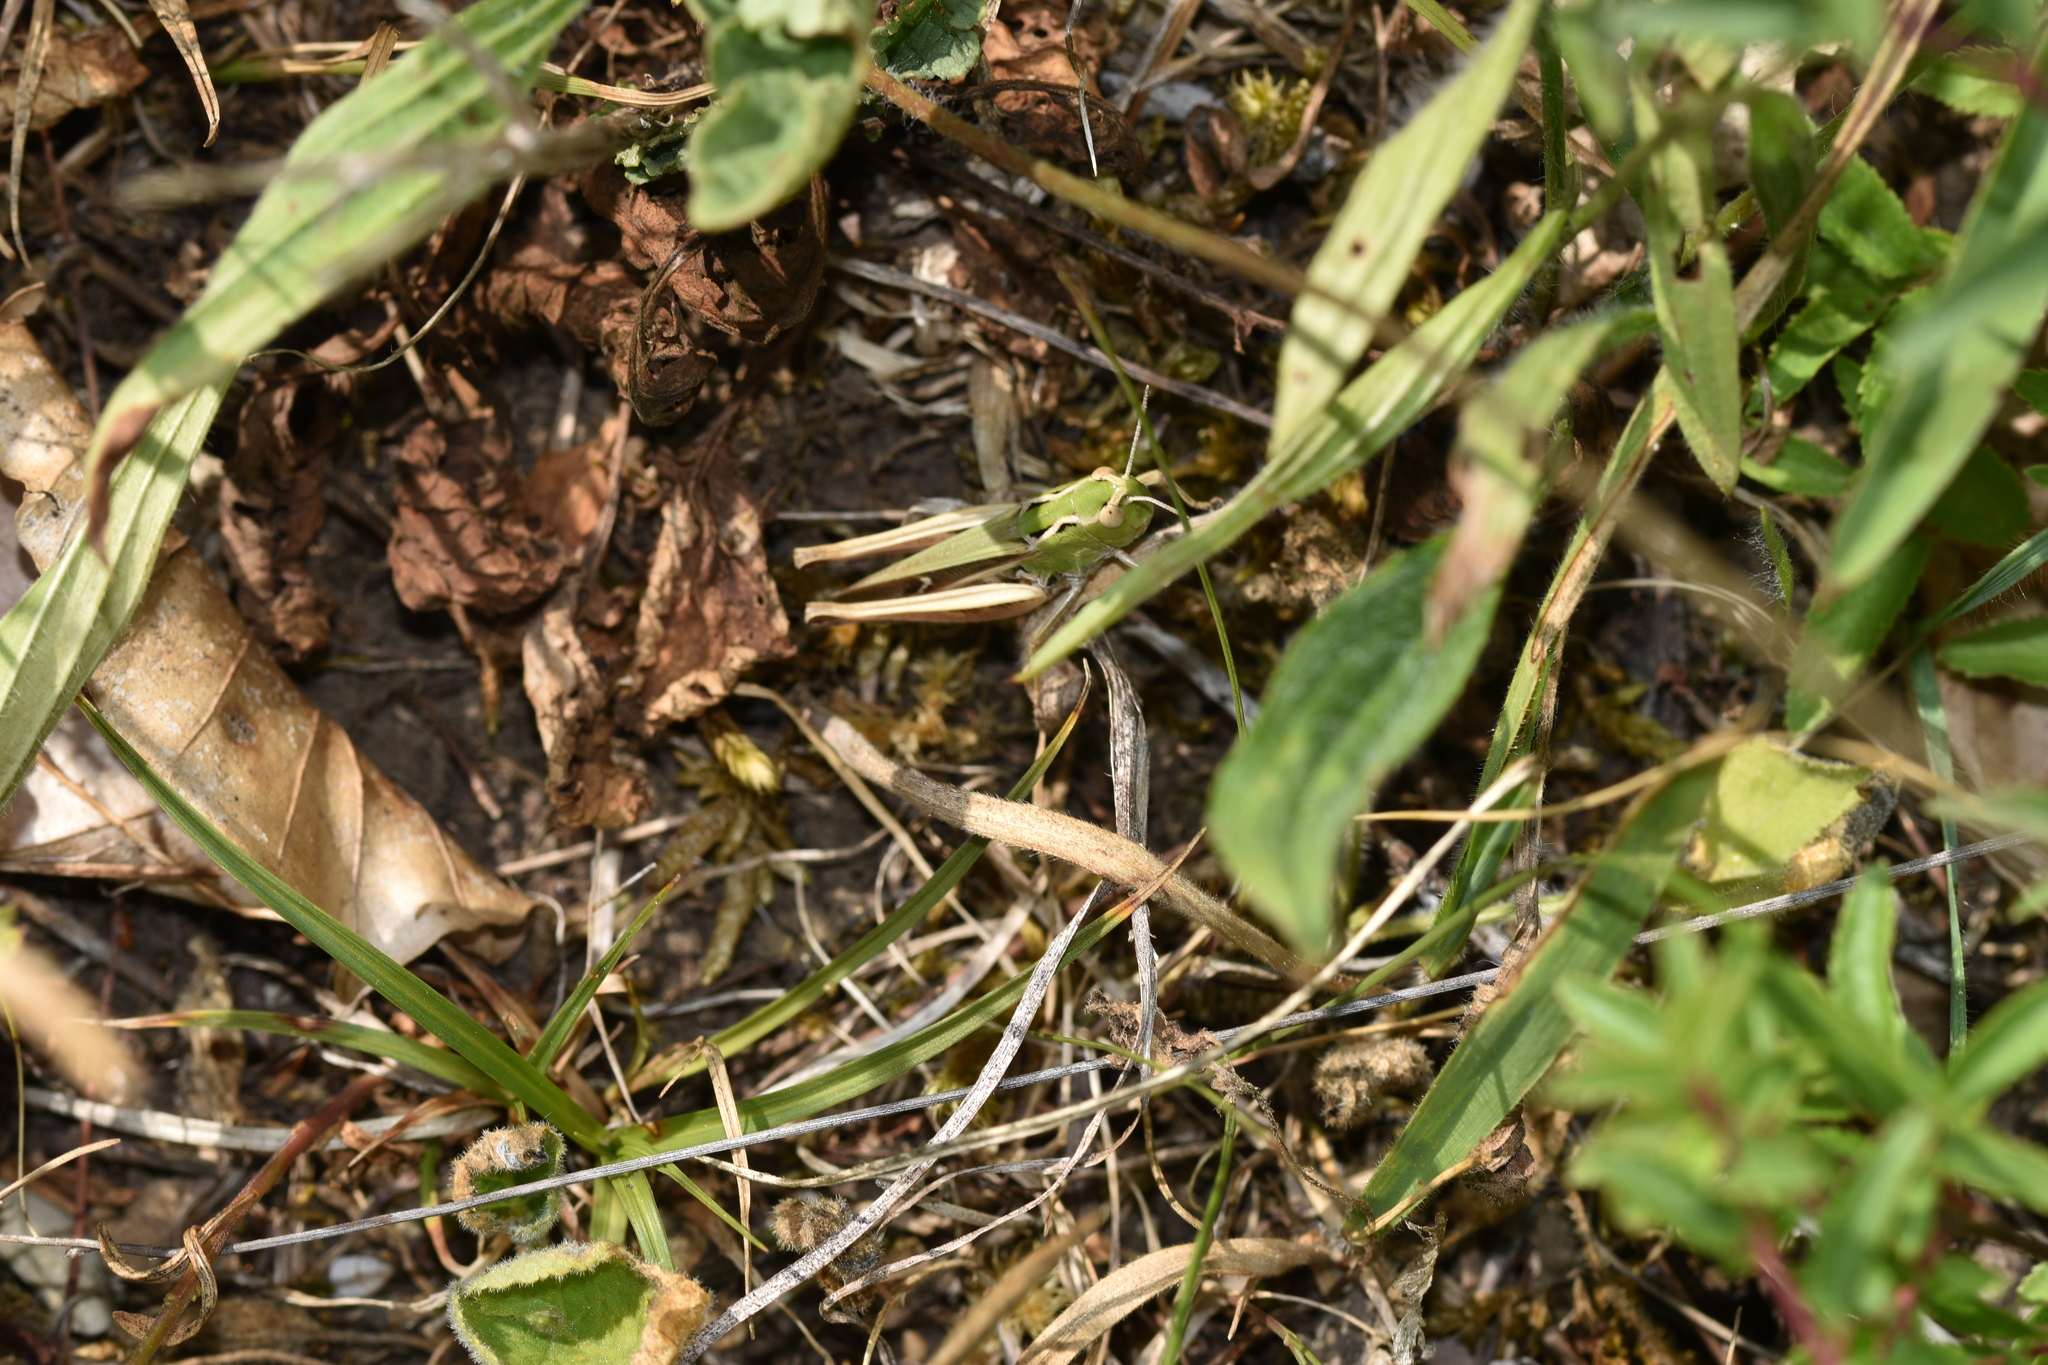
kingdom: Animalia
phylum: Arthropoda
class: Insecta
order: Orthoptera
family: Acrididae
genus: Stenobothrus
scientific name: Stenobothrus lineatus
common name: Stripe-winged grasshopper
